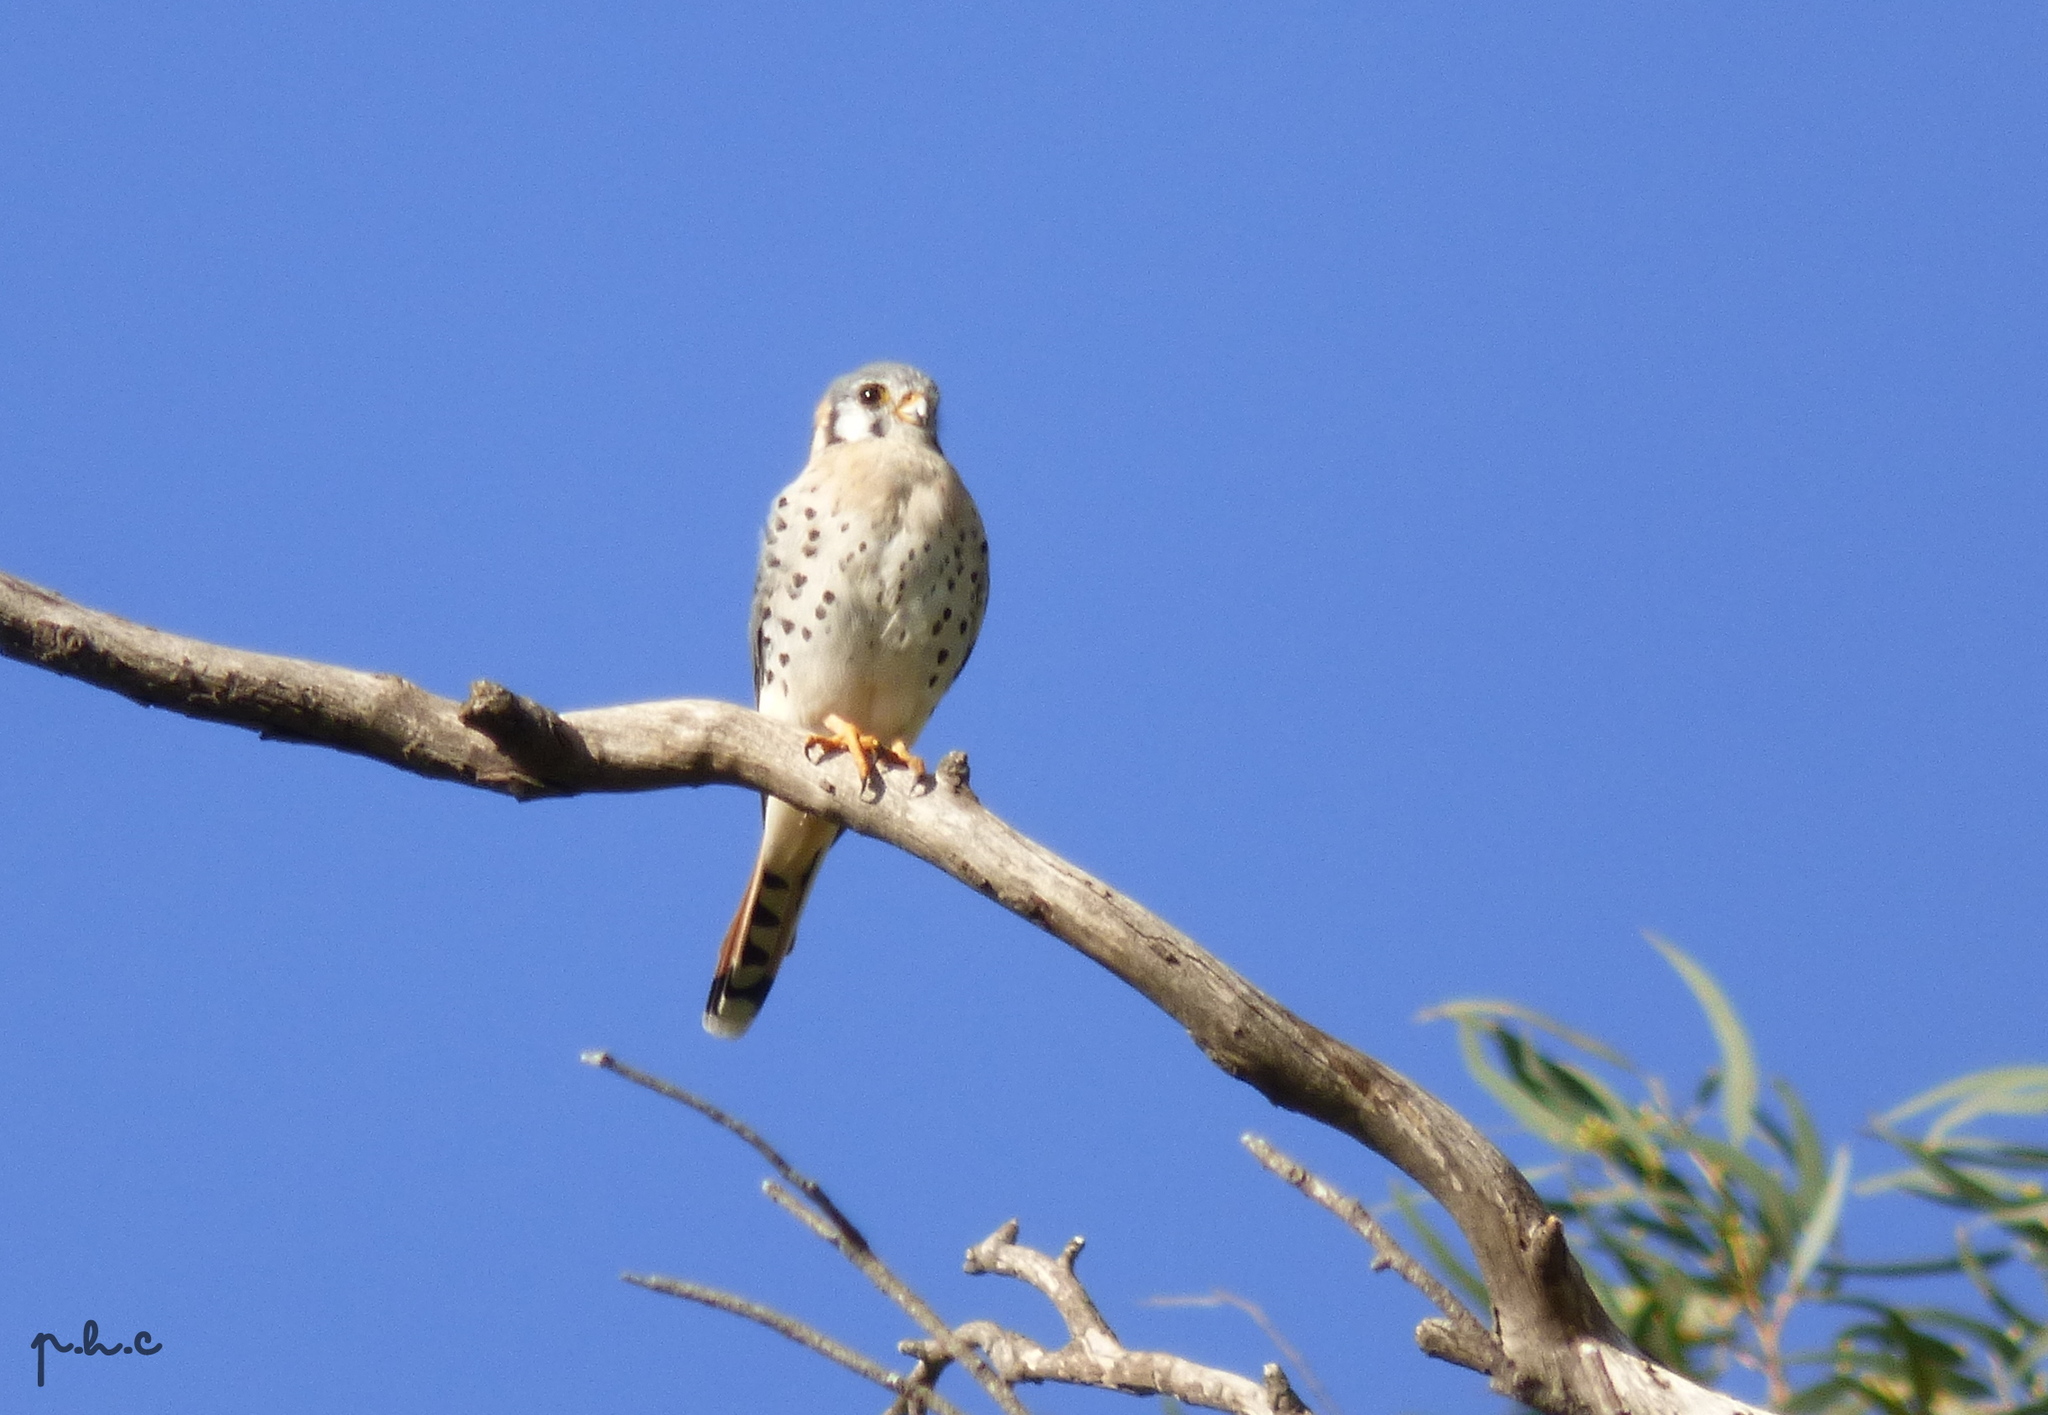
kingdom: Animalia
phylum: Chordata
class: Aves
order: Falconiformes
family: Falconidae
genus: Falco
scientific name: Falco sparverius
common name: American kestrel
